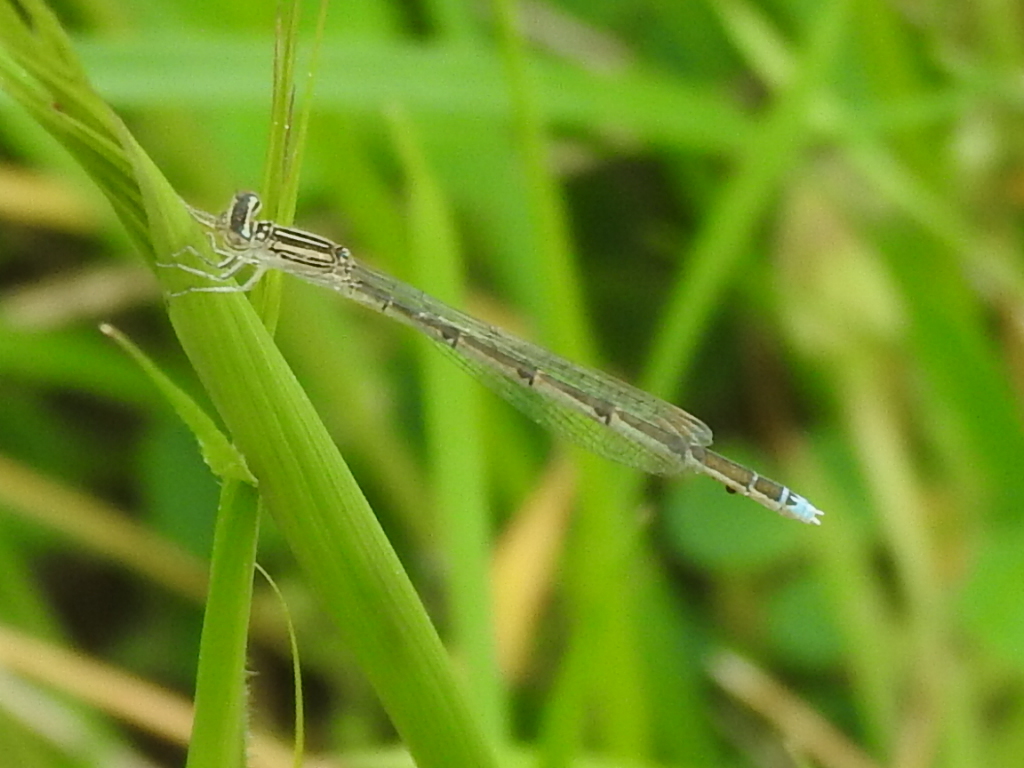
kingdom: Animalia
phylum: Arthropoda
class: Insecta
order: Odonata
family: Coenagrionidae
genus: Enallagma
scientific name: Enallagma basidens
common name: Double-striped bluet
